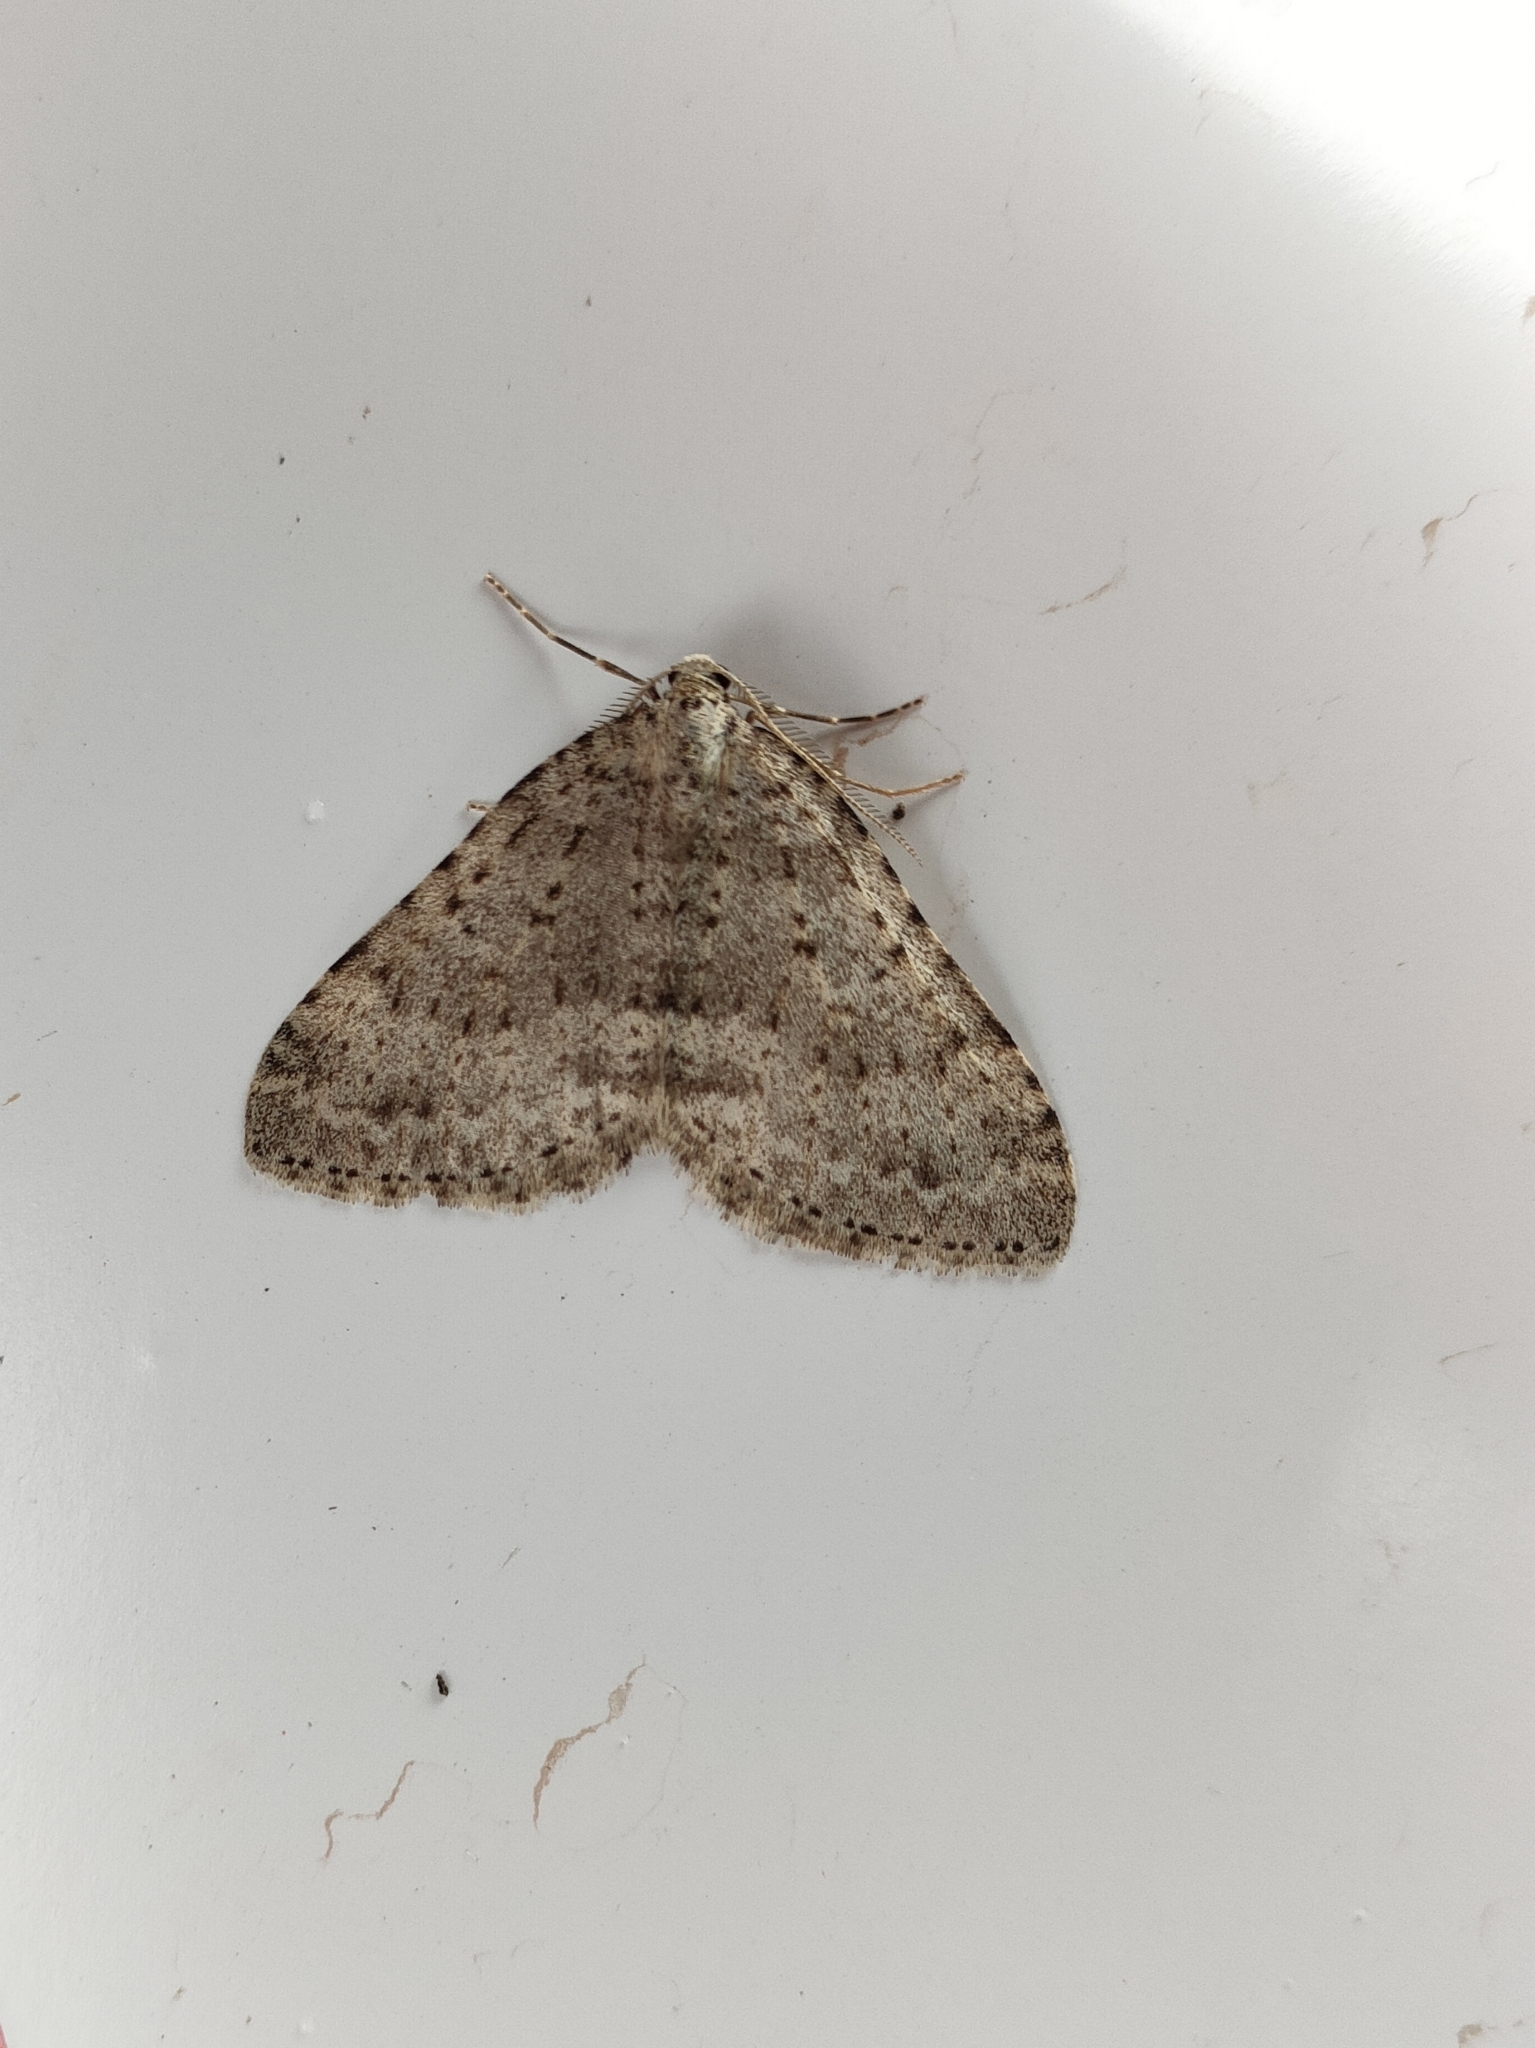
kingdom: Animalia
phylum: Arthropoda
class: Insecta
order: Lepidoptera
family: Geometridae
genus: Colostygia
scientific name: Colostygia multistrigaria
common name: Mottled grey
